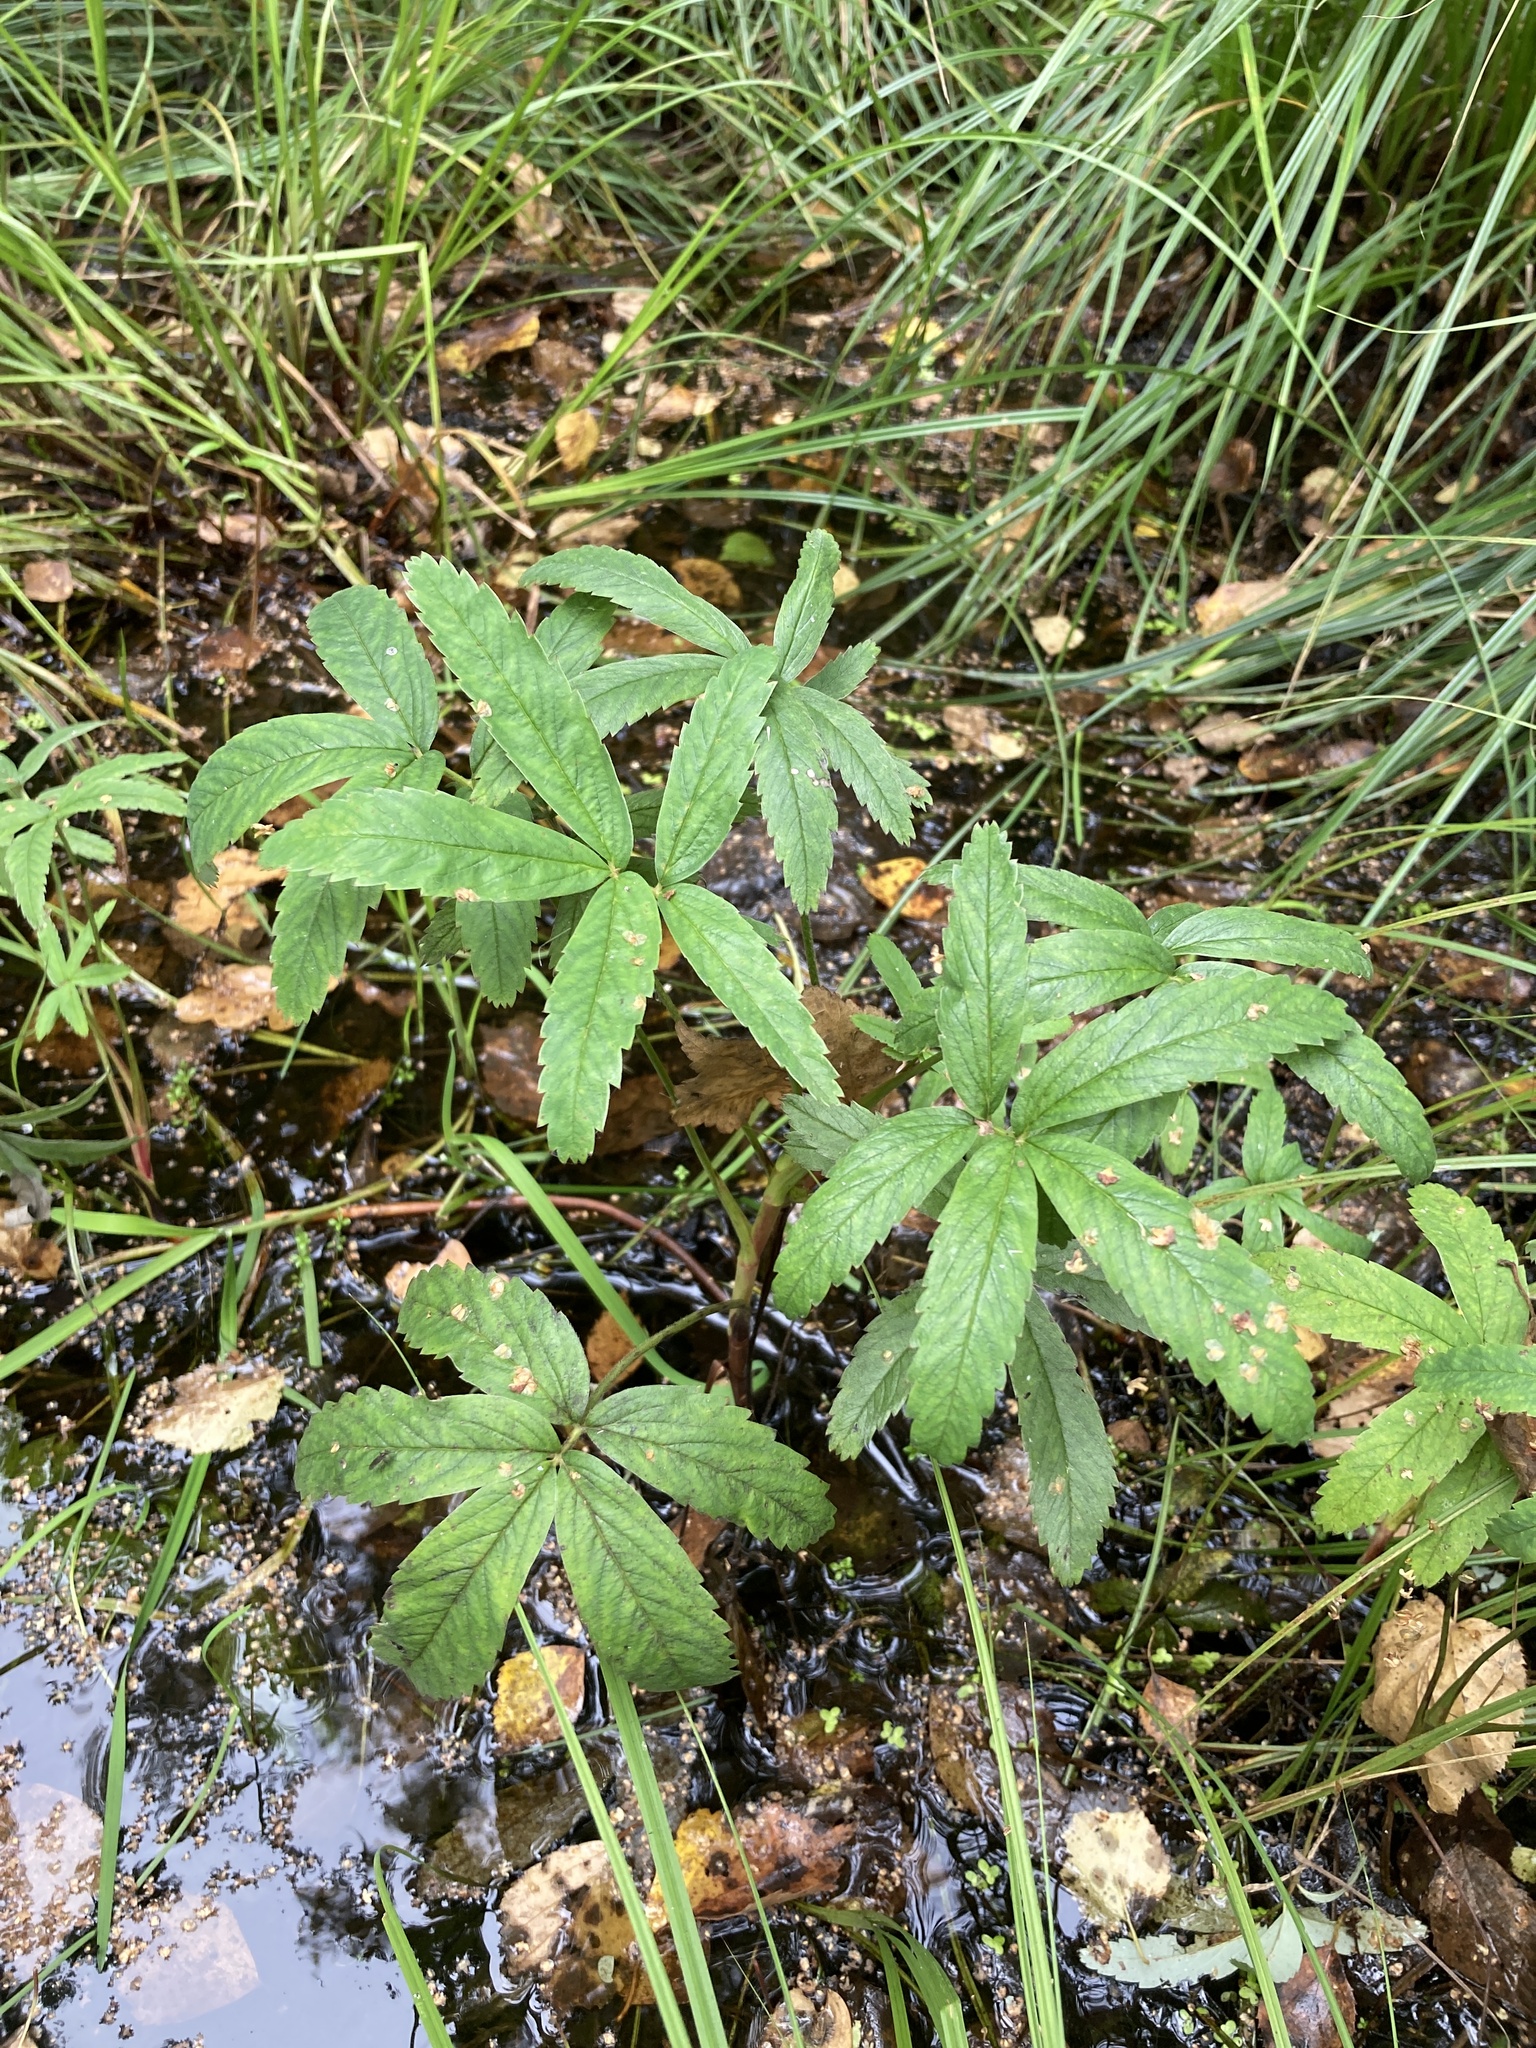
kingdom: Plantae
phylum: Tracheophyta
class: Magnoliopsida
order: Rosales
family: Rosaceae
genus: Comarum
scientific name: Comarum palustre
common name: Marsh cinquefoil
